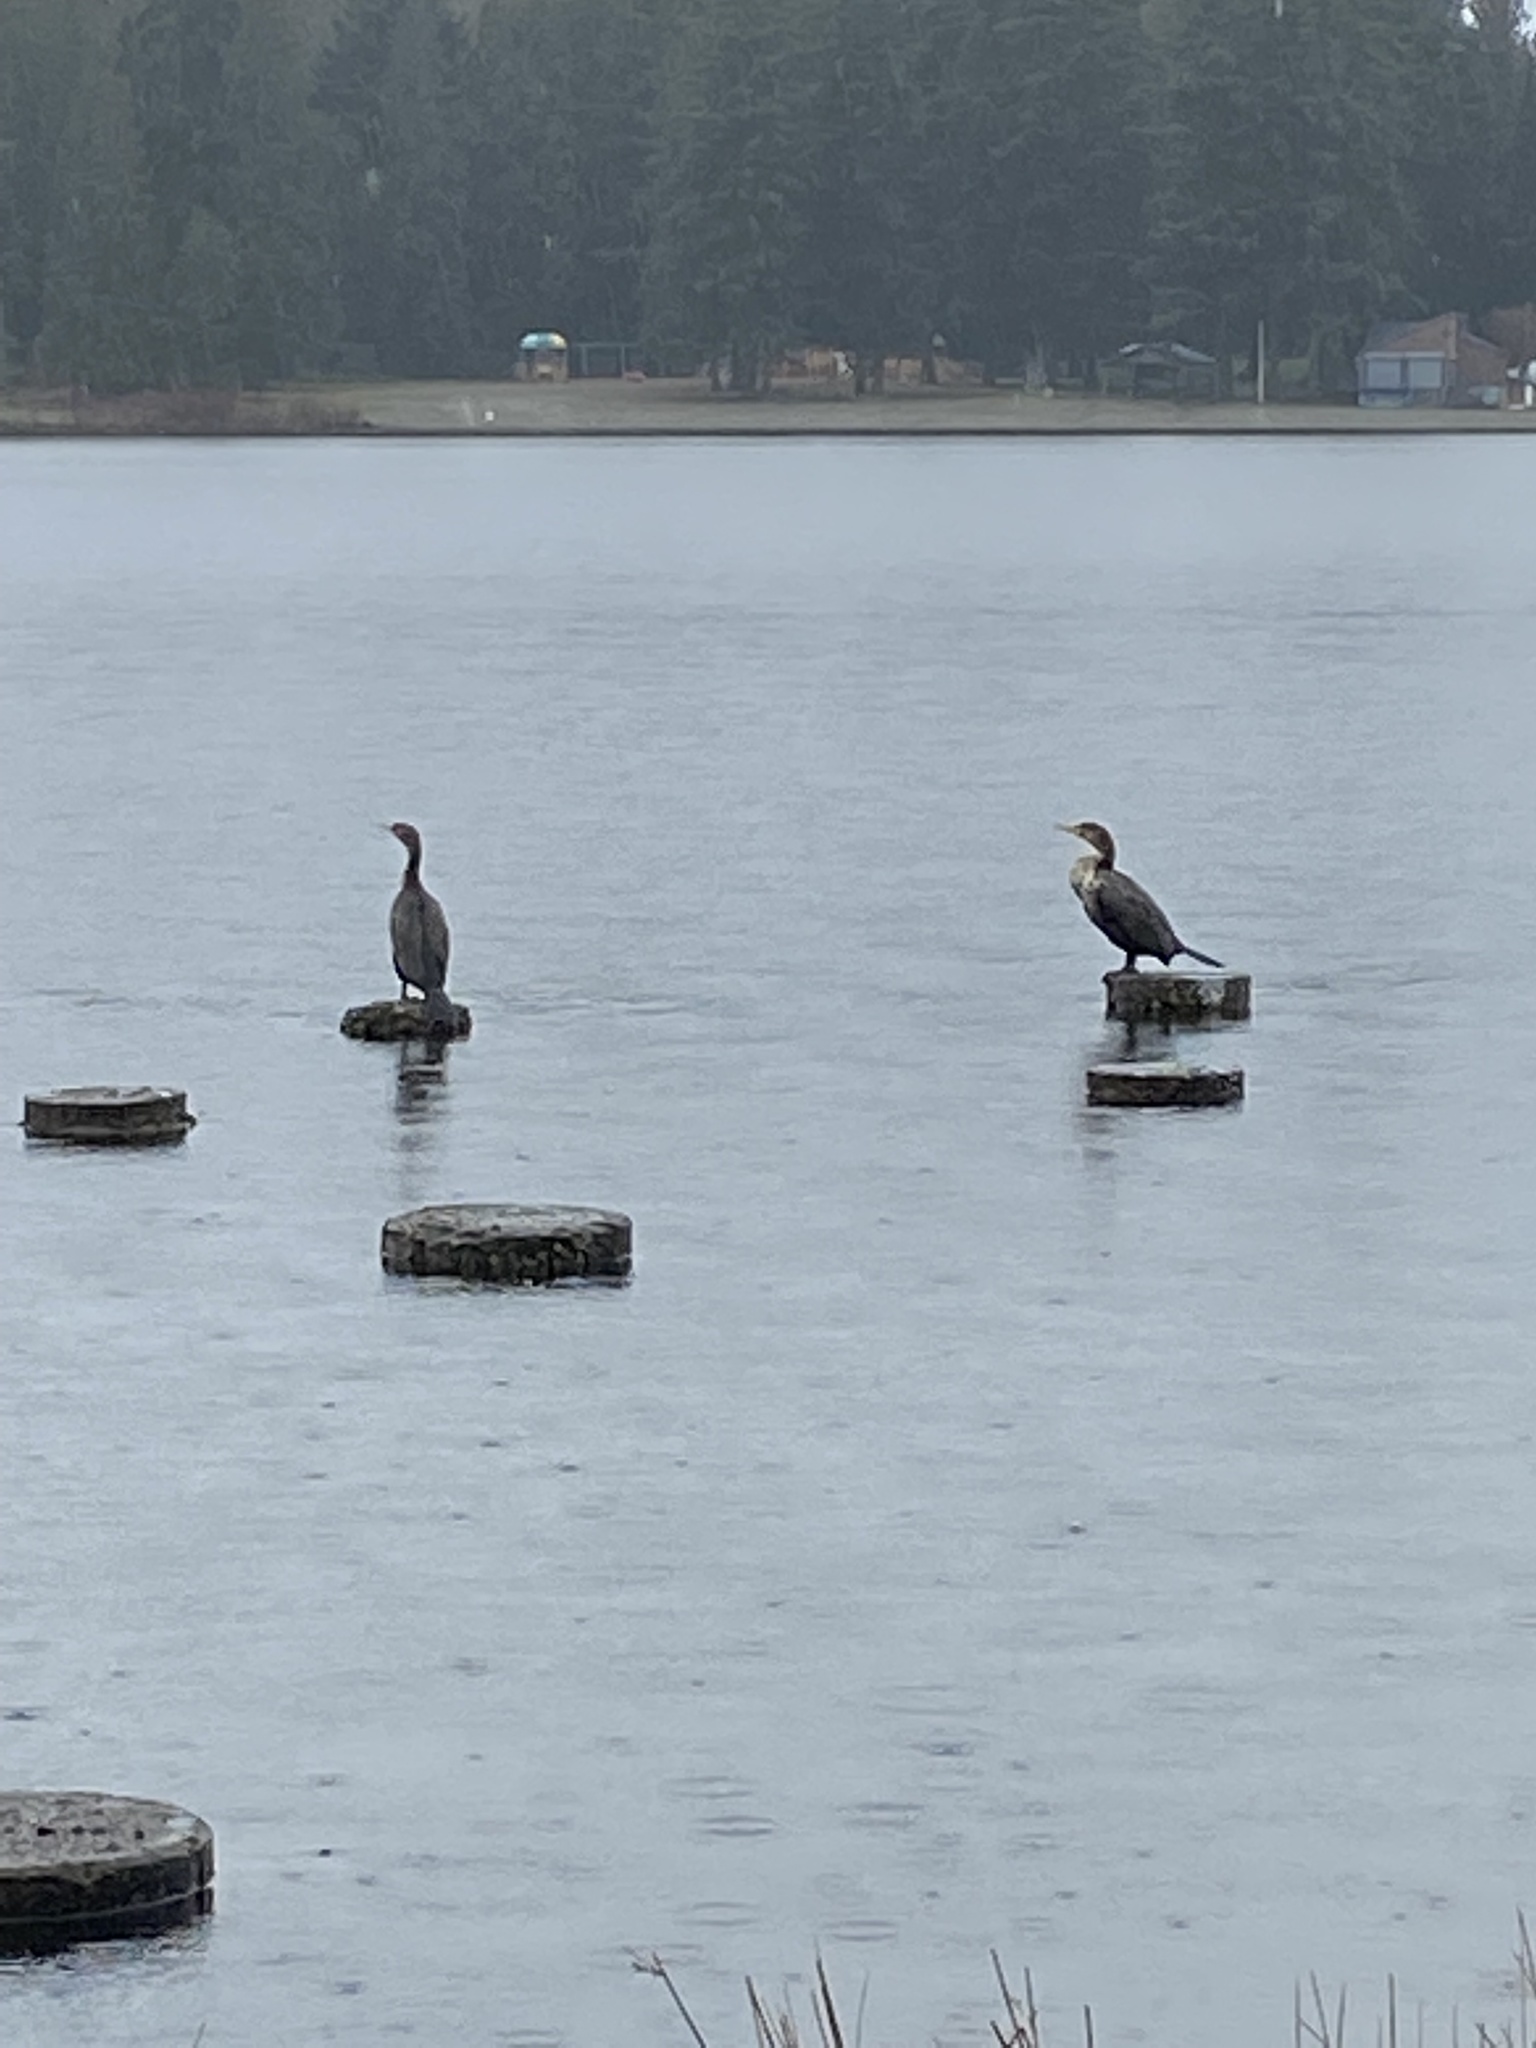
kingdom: Animalia
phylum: Chordata
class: Aves
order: Suliformes
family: Phalacrocoracidae
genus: Phalacrocorax
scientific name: Phalacrocorax auritus
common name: Double-crested cormorant
